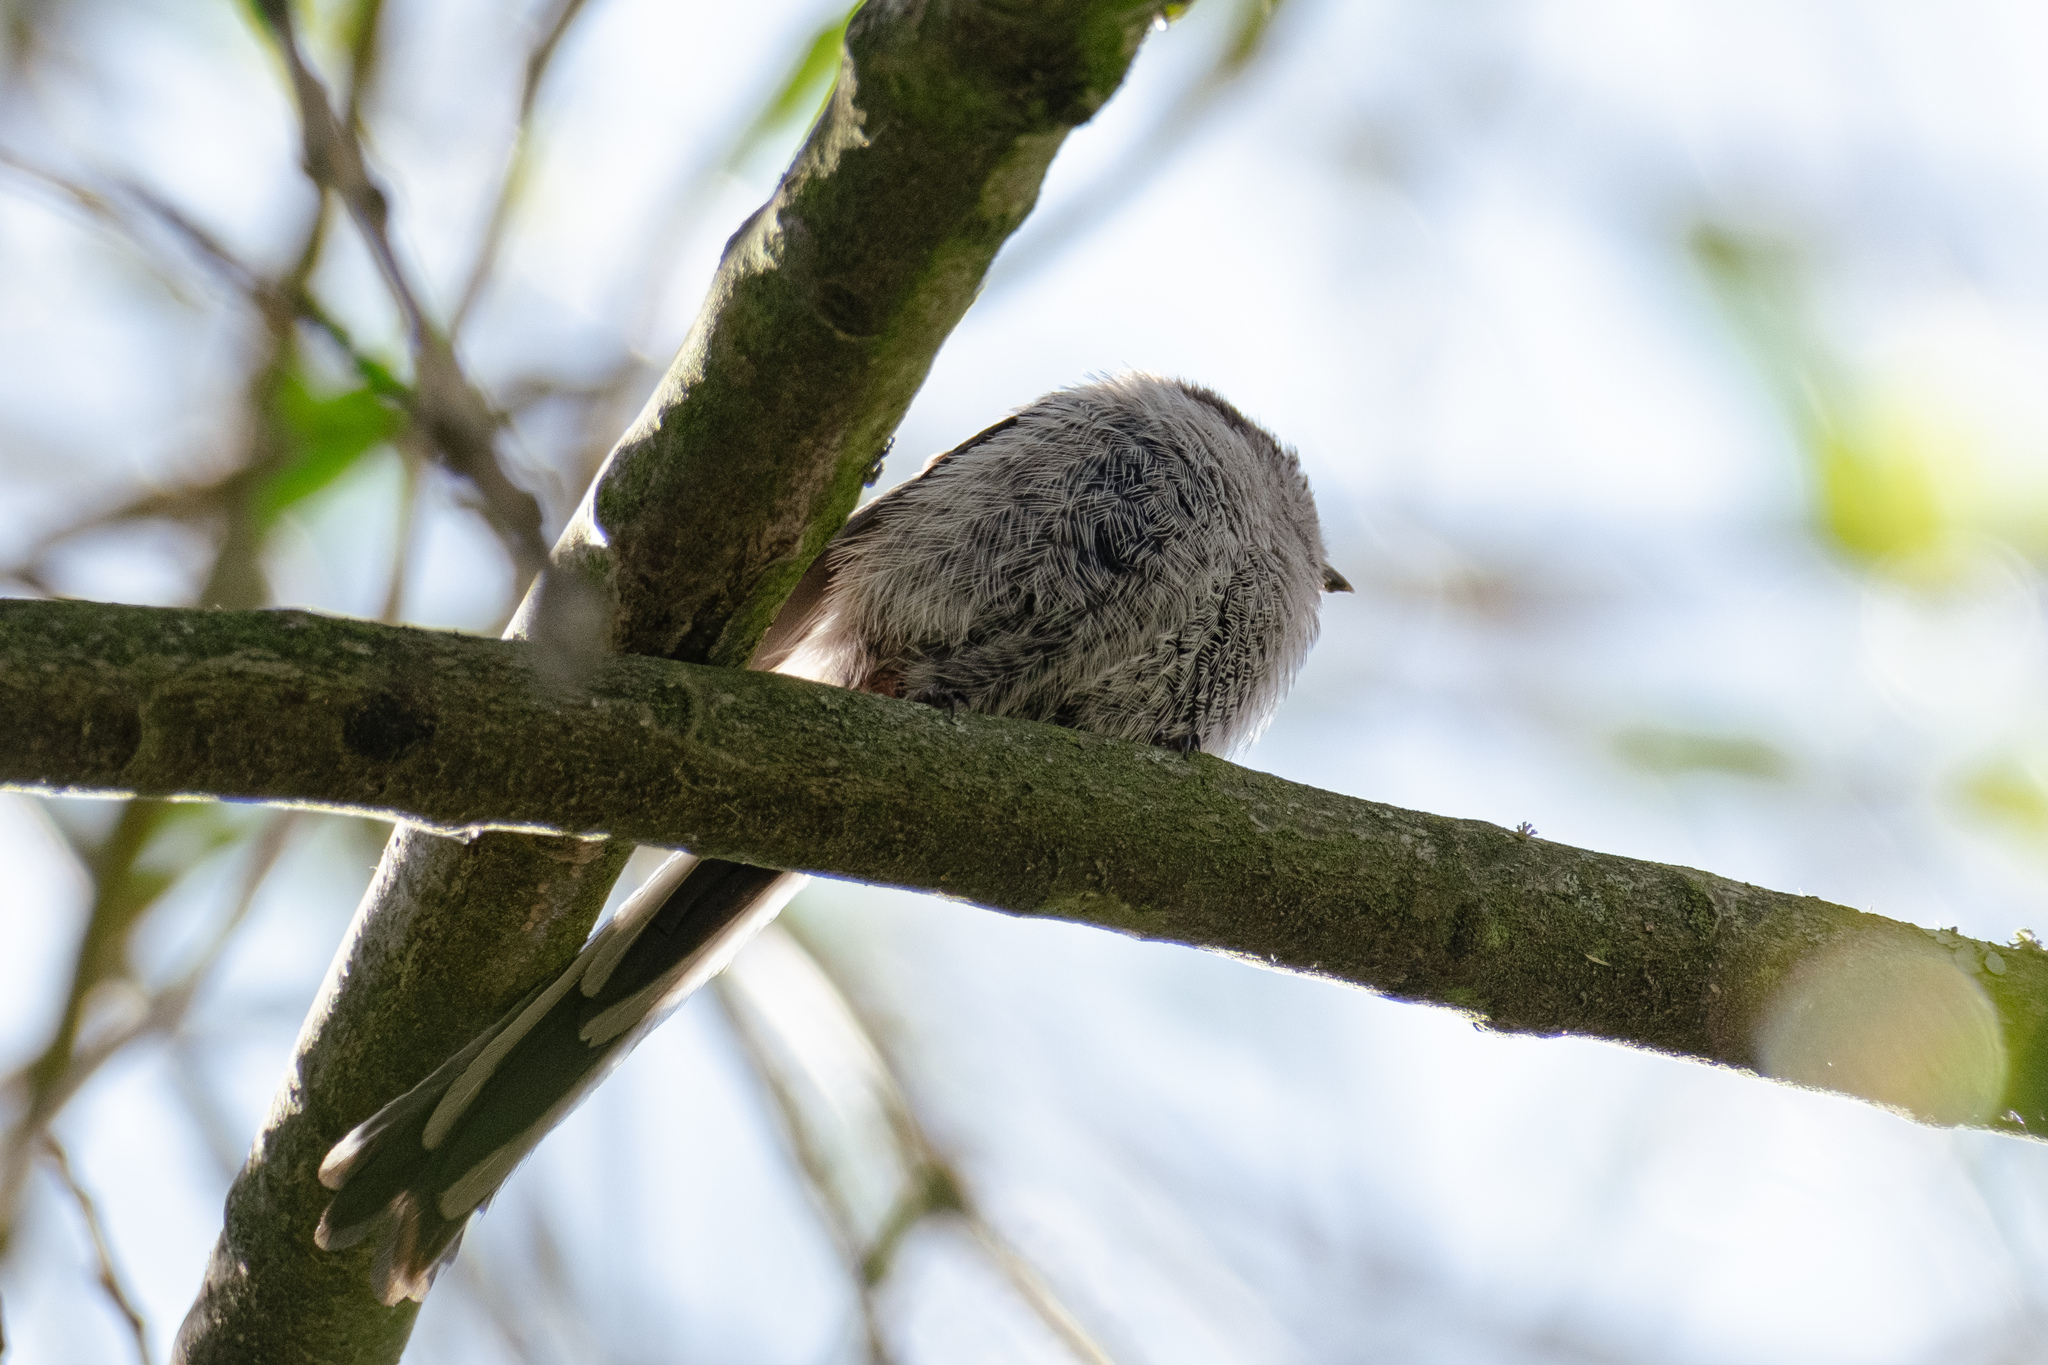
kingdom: Animalia
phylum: Chordata
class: Aves
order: Passeriformes
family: Aegithalidae
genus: Aegithalos
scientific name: Aegithalos caudatus
